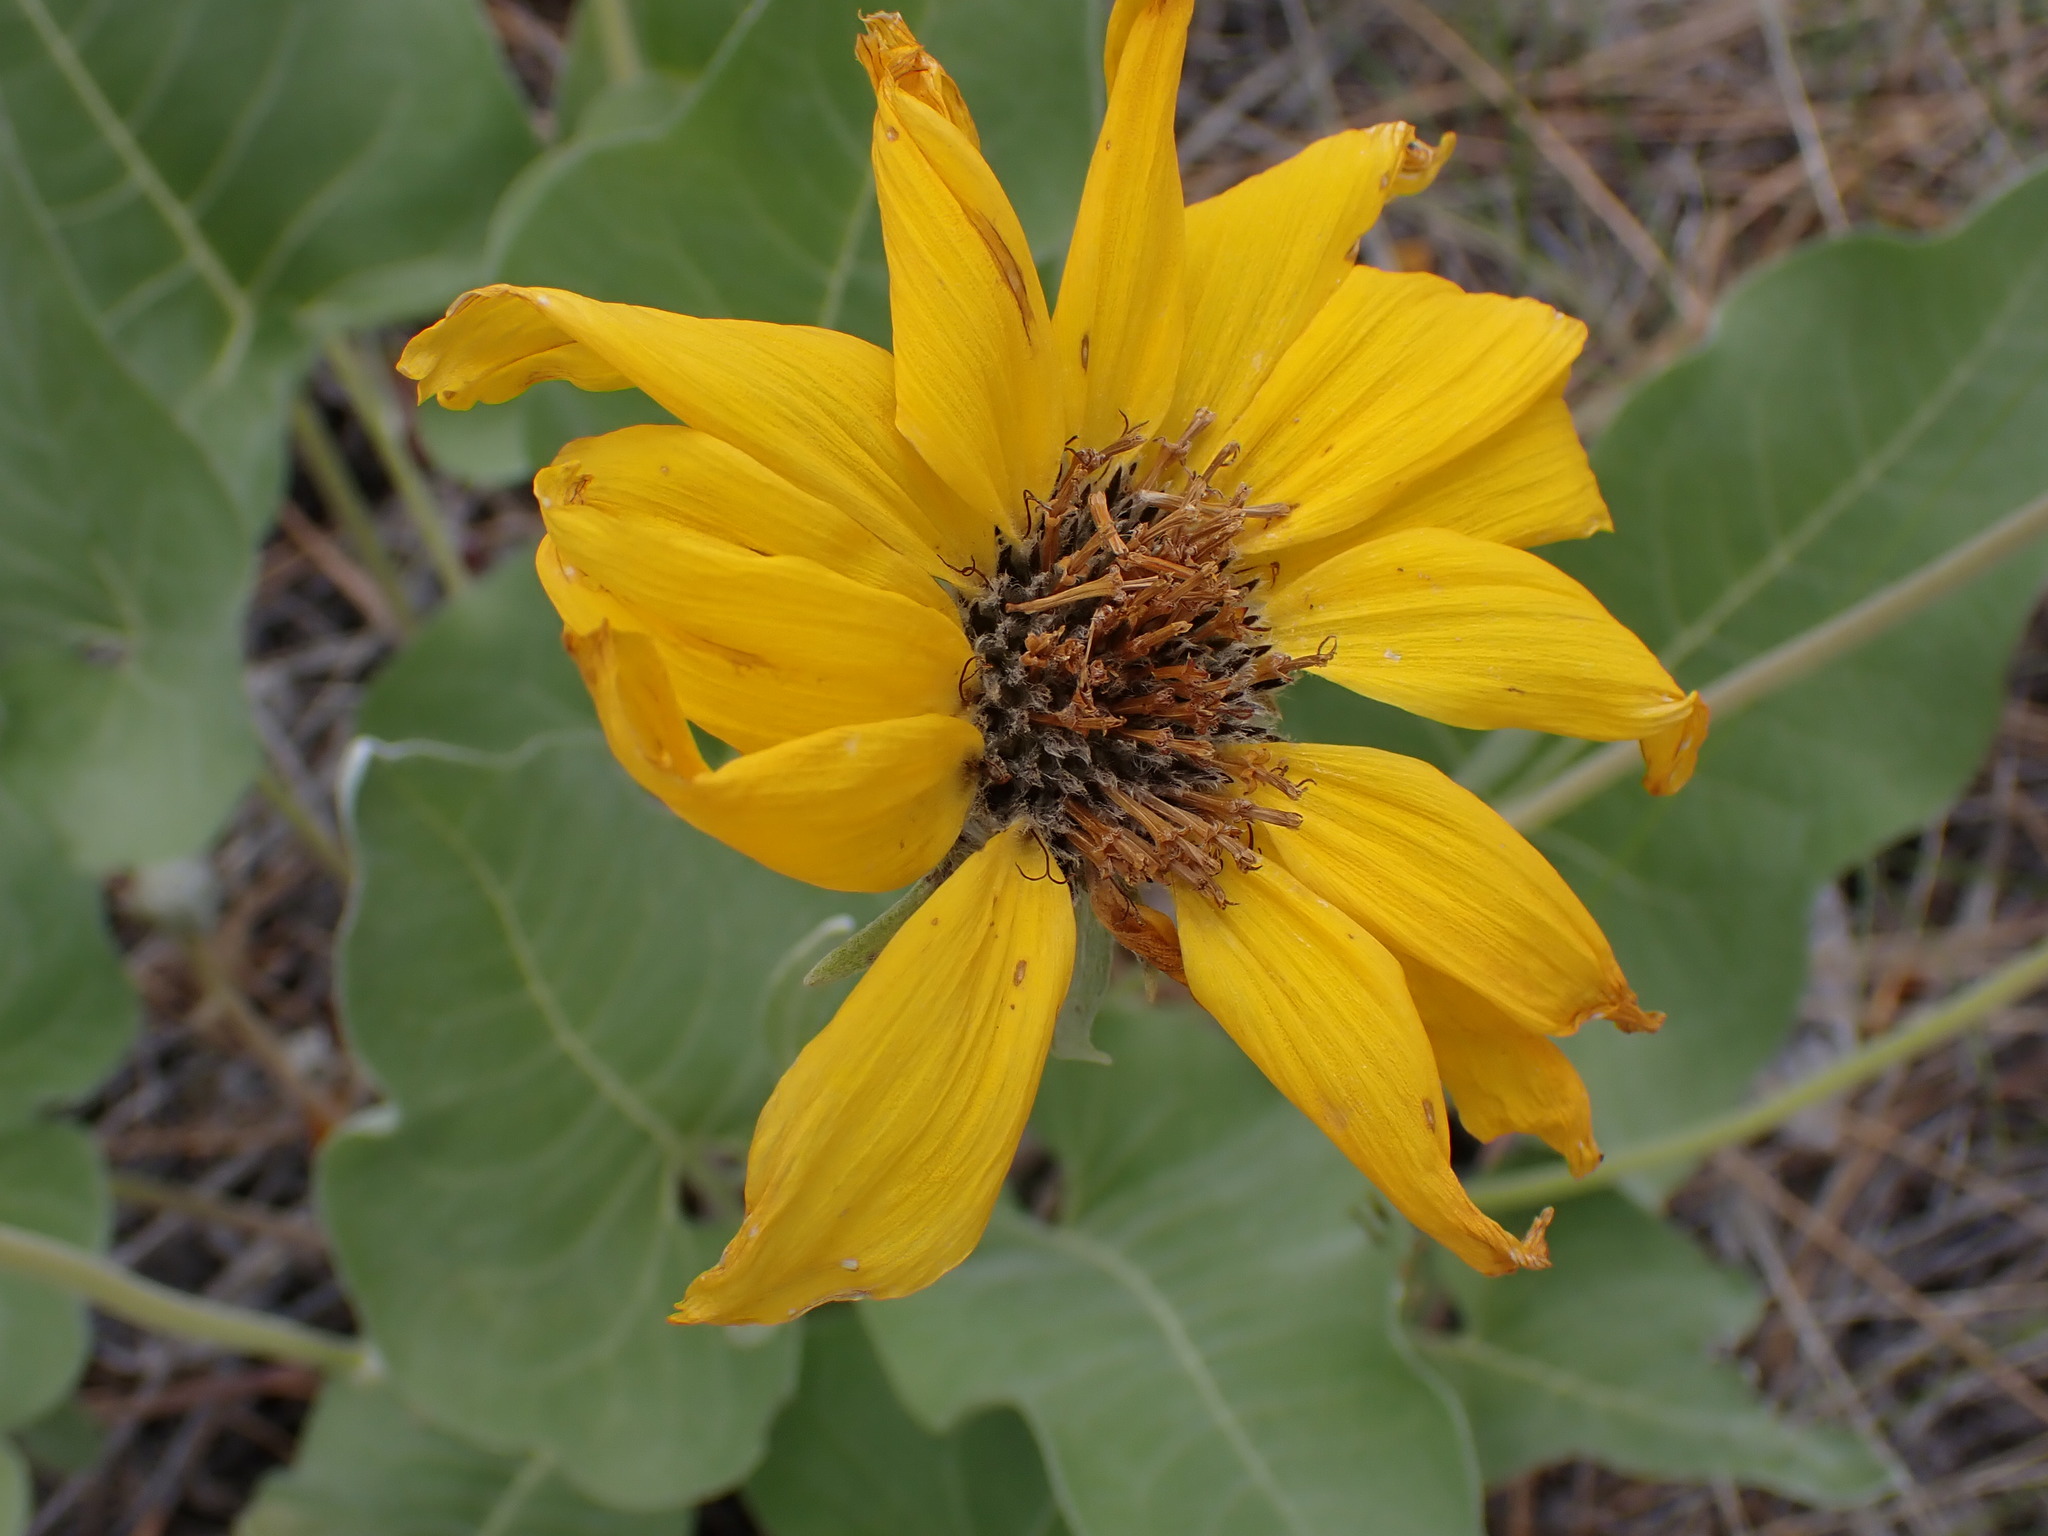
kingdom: Plantae
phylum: Tracheophyta
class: Magnoliopsida
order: Asterales
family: Asteraceae
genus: Wyethia
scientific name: Wyethia sagittata
